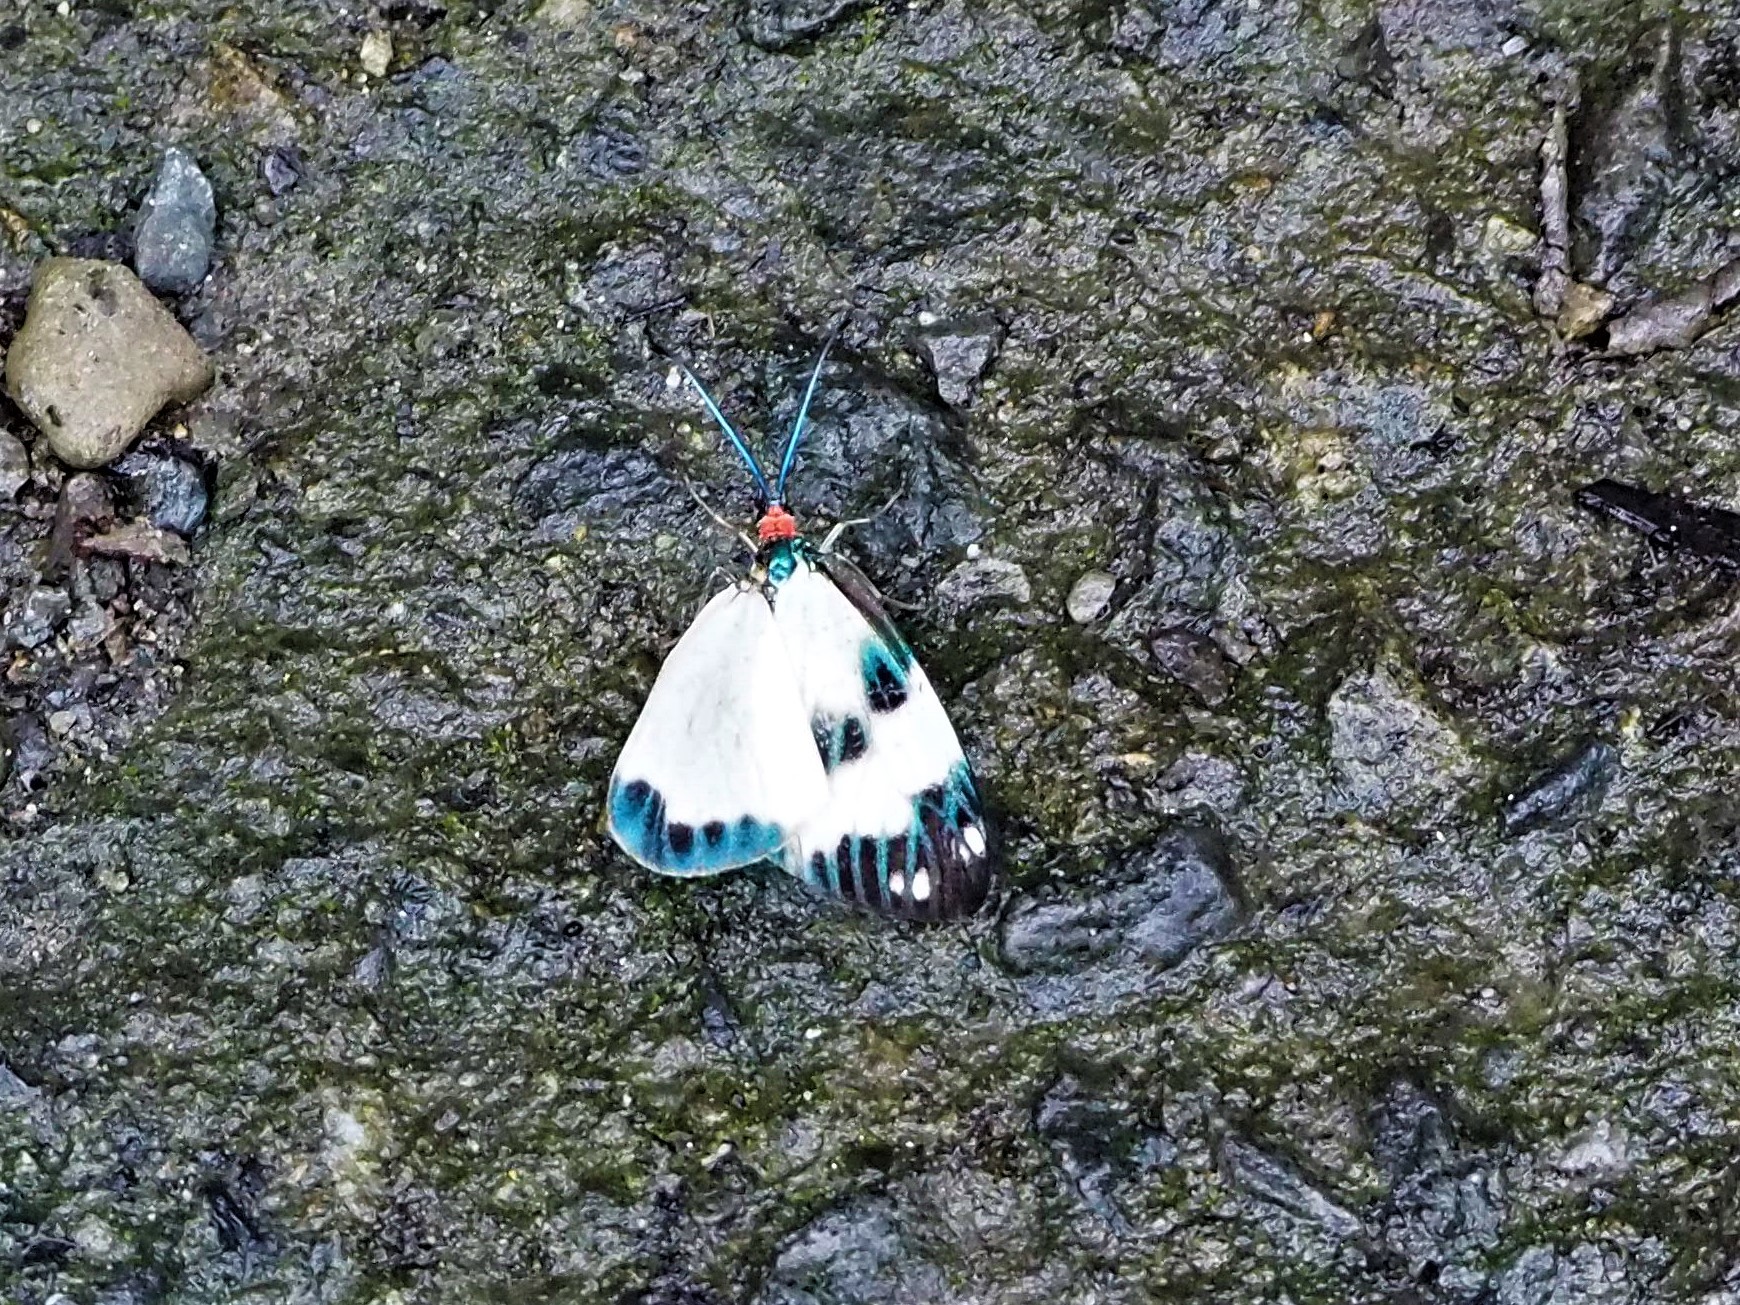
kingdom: Animalia
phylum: Arthropoda
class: Insecta
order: Lepidoptera
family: Zygaenidae
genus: Chalcosia
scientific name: Chalcosia pectinicornis
